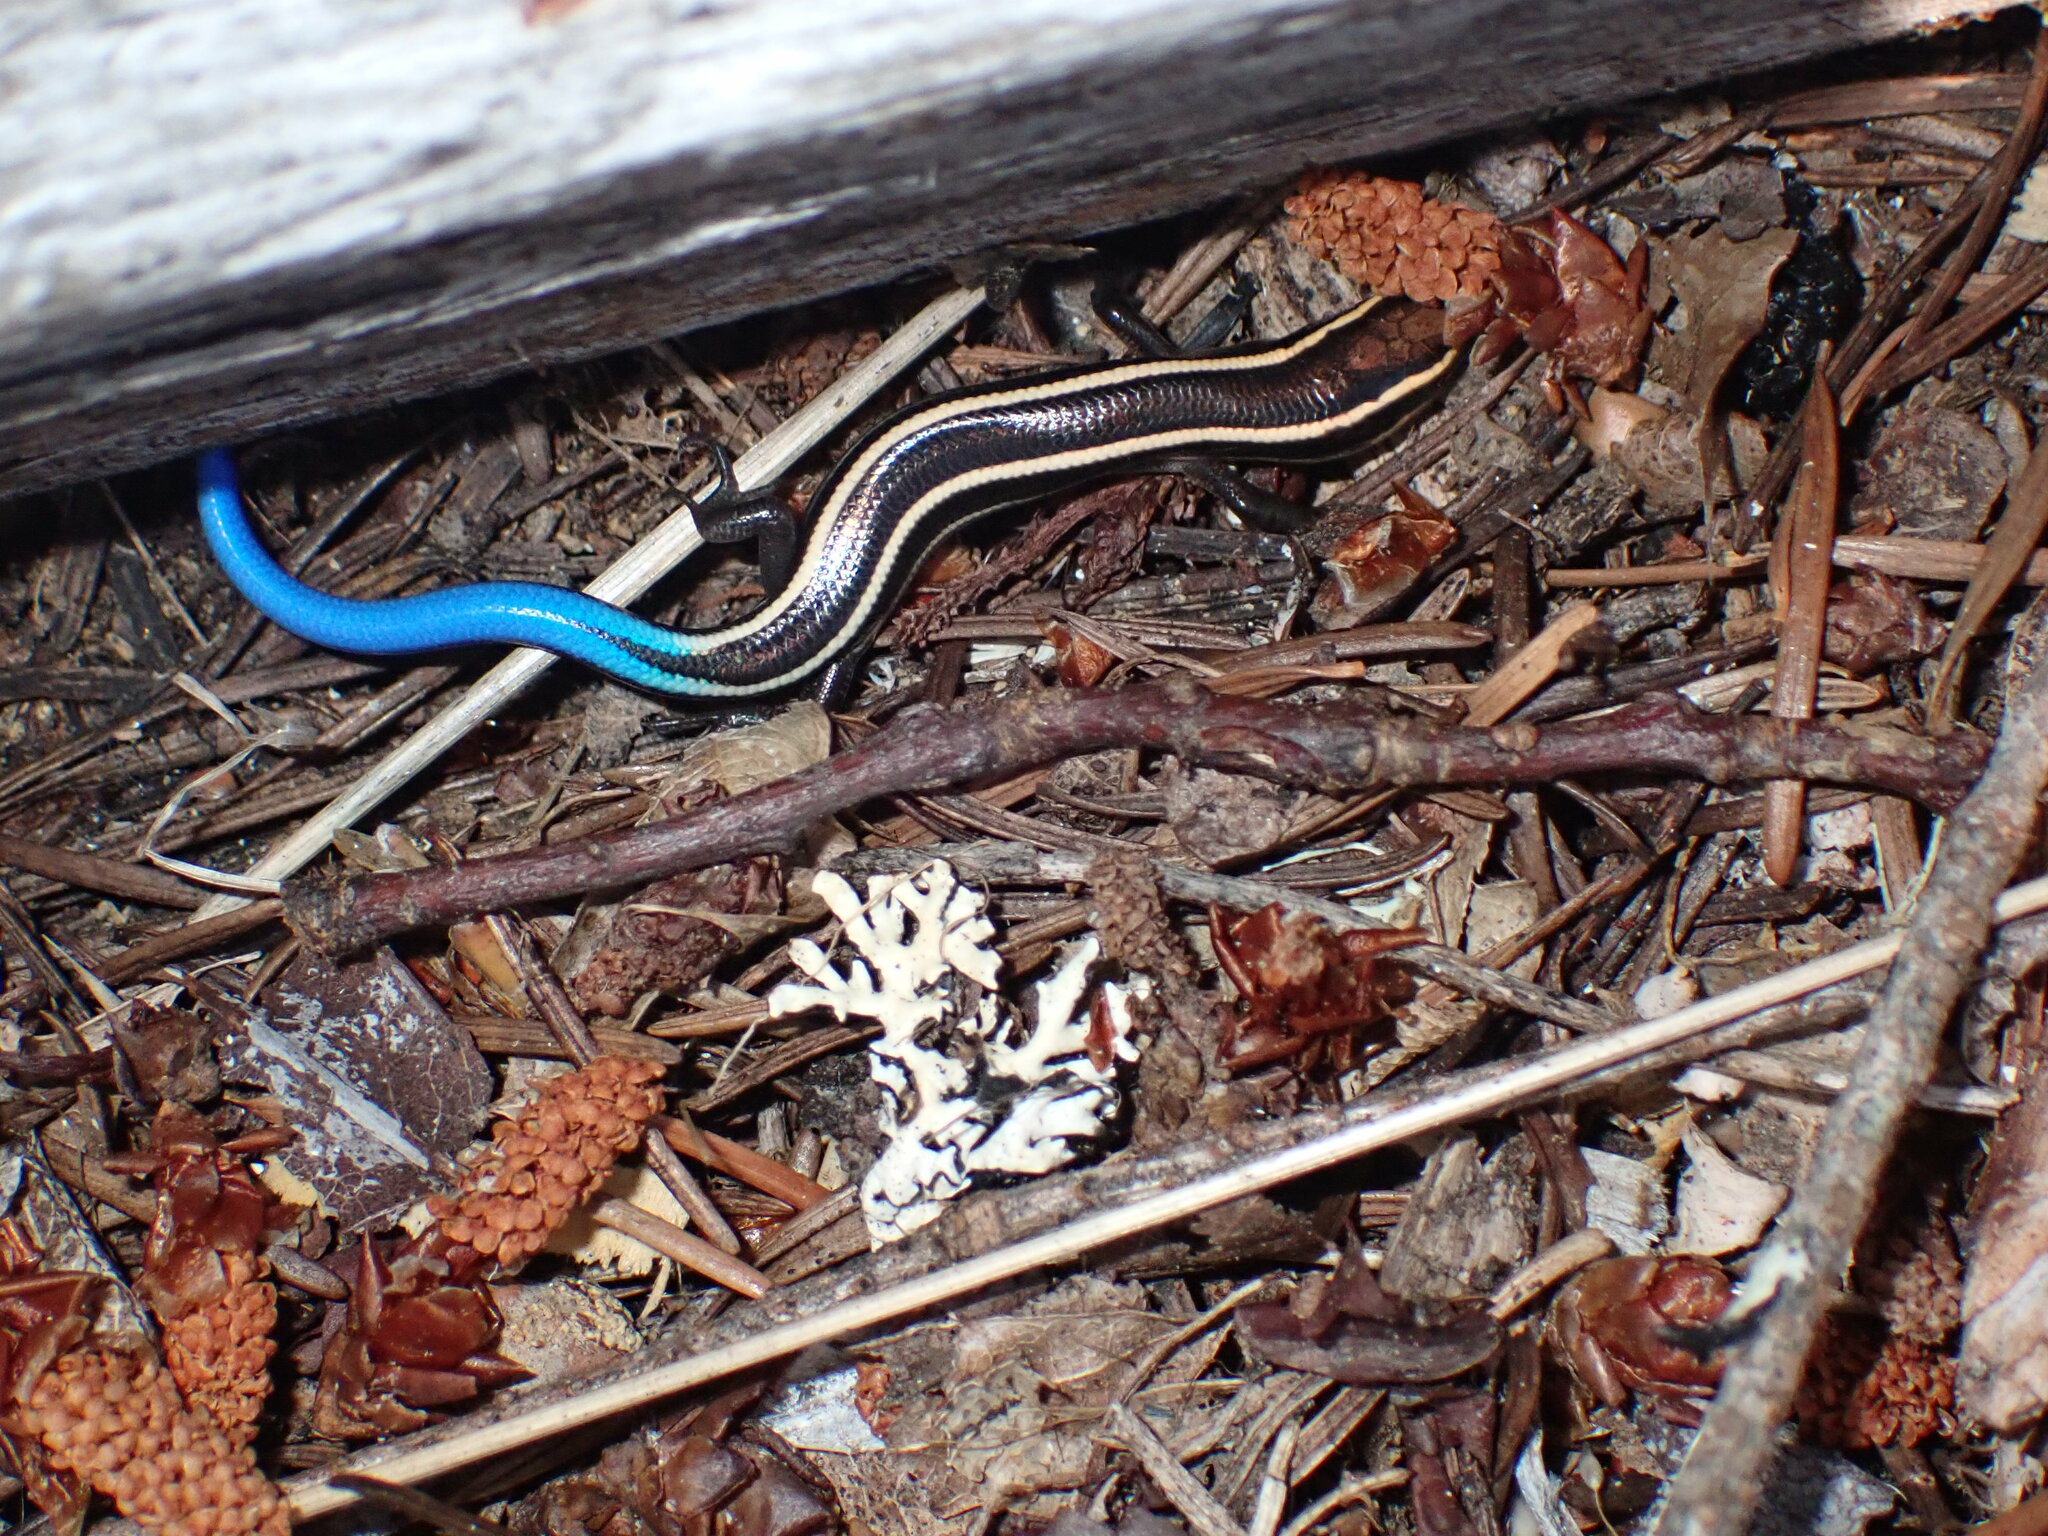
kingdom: Animalia
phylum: Chordata
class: Squamata
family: Scincidae
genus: Plestiodon
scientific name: Plestiodon skiltonianus
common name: Coronado island skink [interparietalis]
